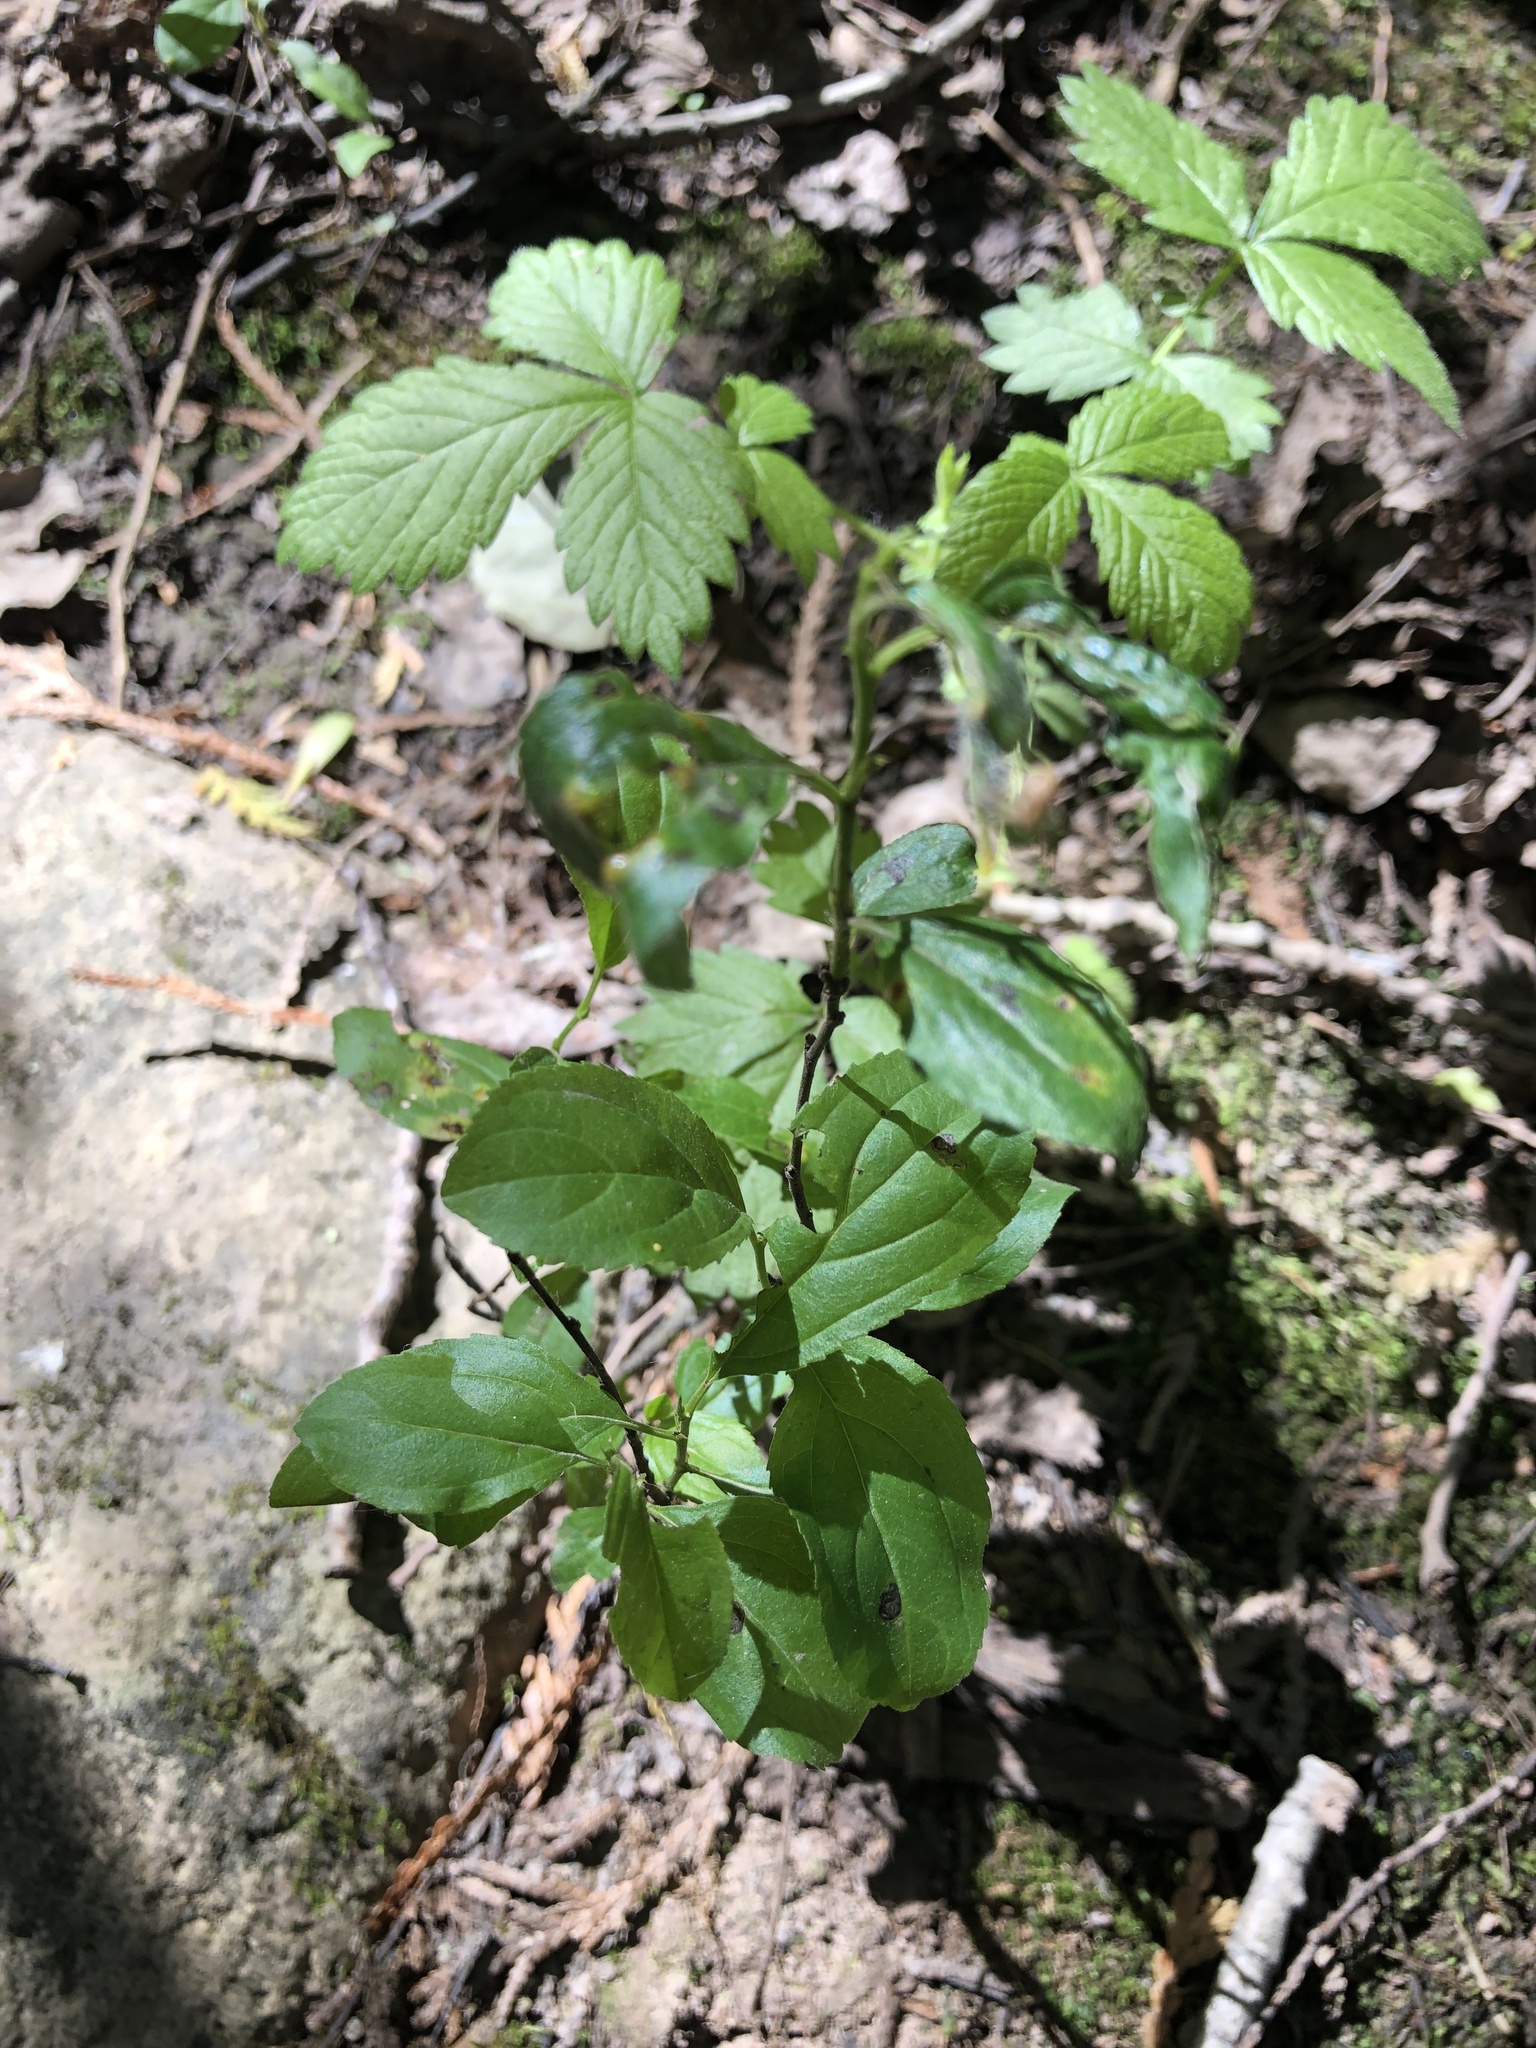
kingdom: Plantae
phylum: Tracheophyta
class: Magnoliopsida
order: Rosales
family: Rhamnaceae
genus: Rhamnus
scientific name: Rhamnus cathartica
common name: Common buckthorn
